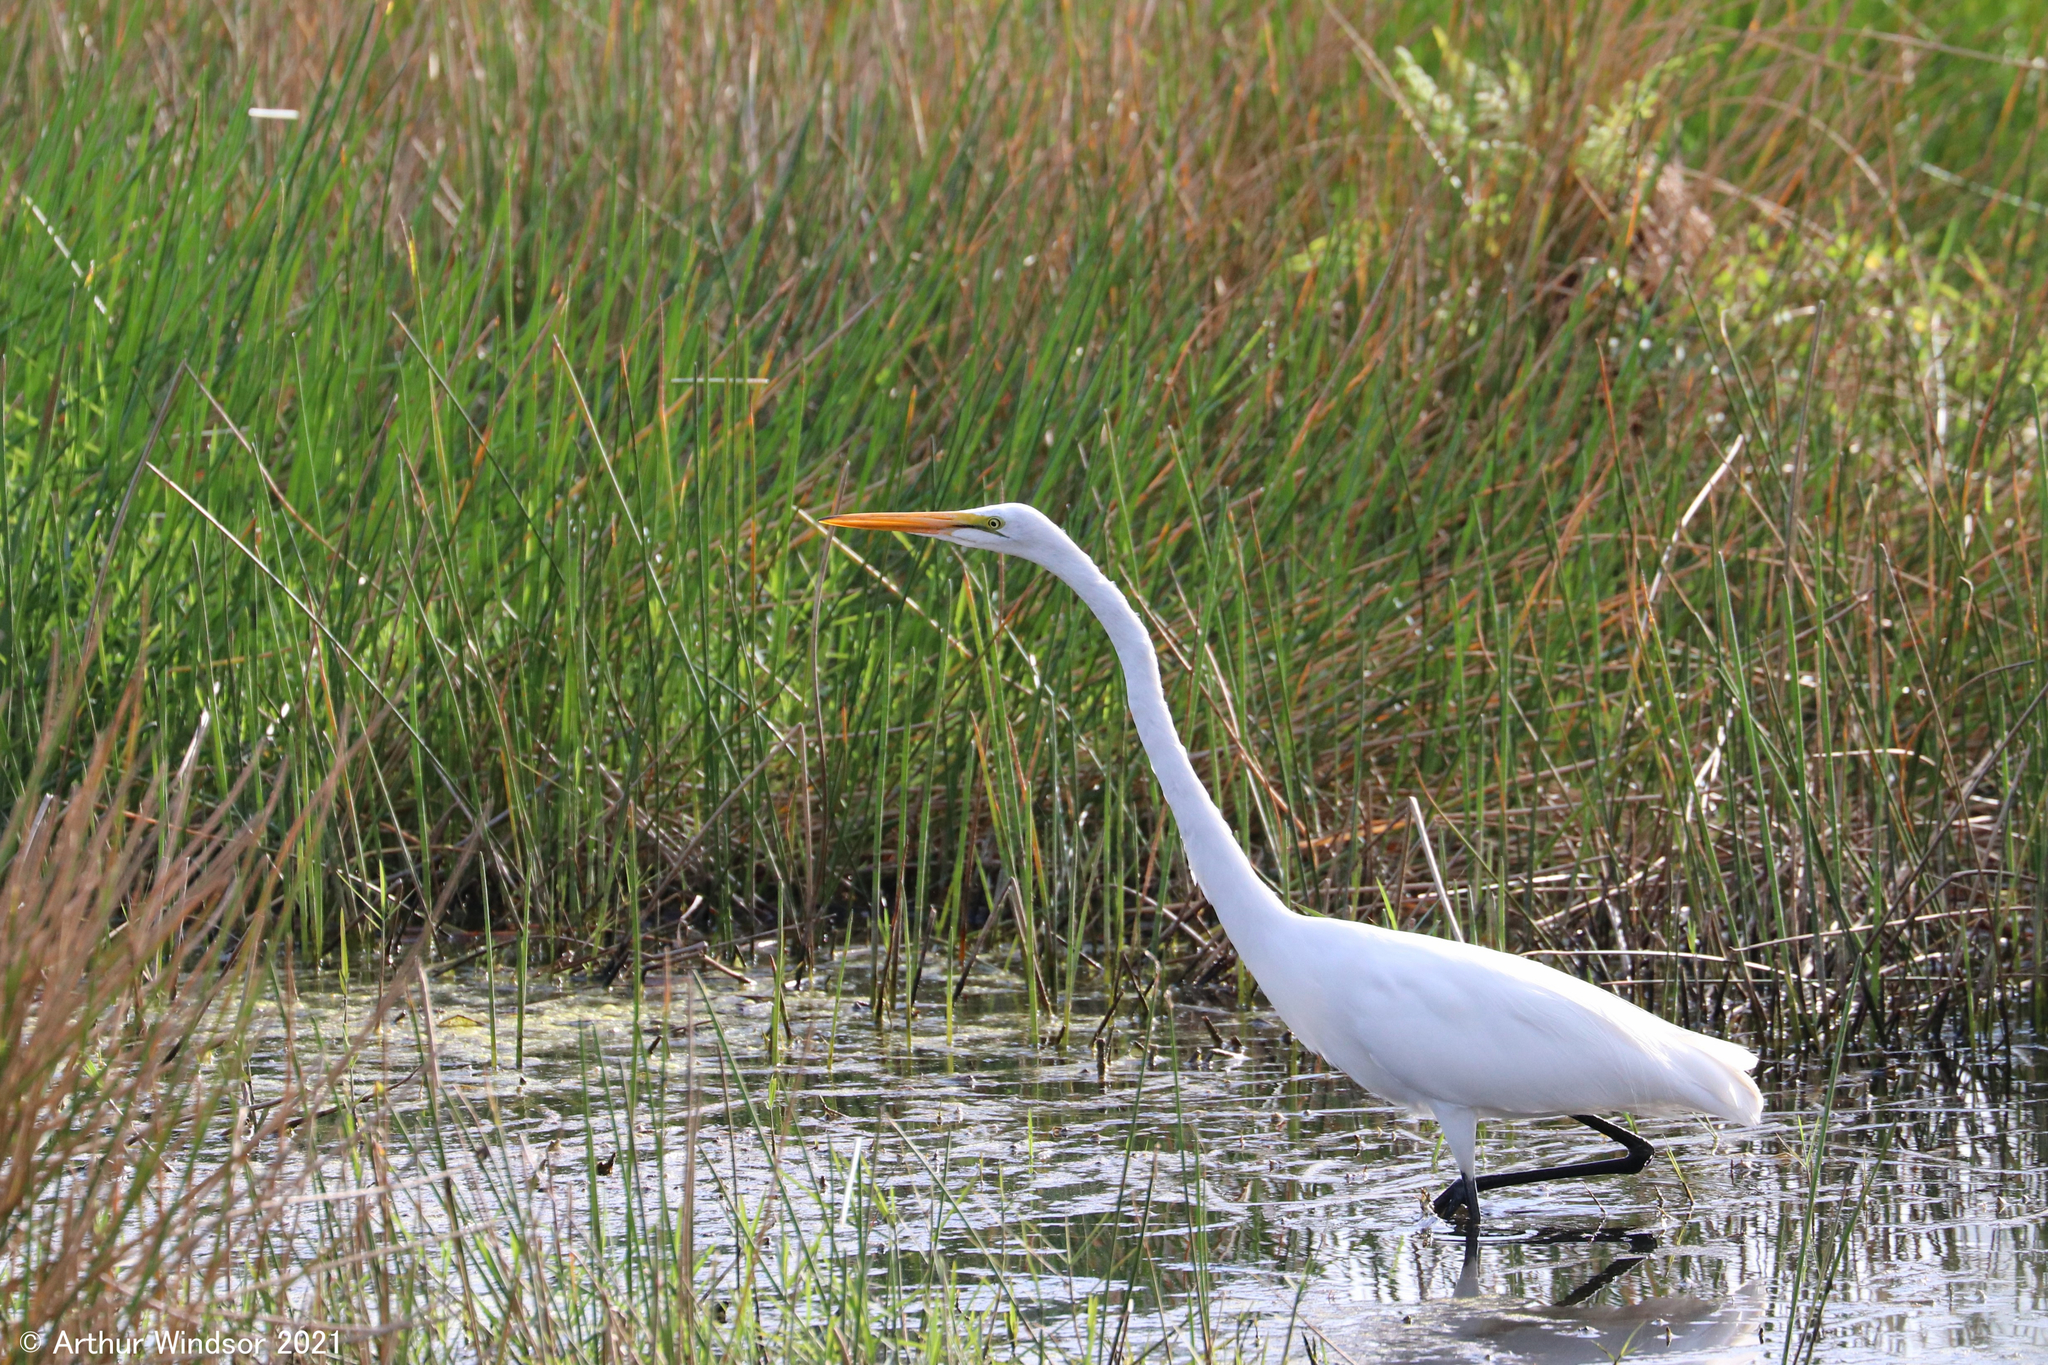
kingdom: Animalia
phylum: Chordata
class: Aves
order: Pelecaniformes
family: Ardeidae
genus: Ardea
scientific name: Ardea alba
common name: Great egret
